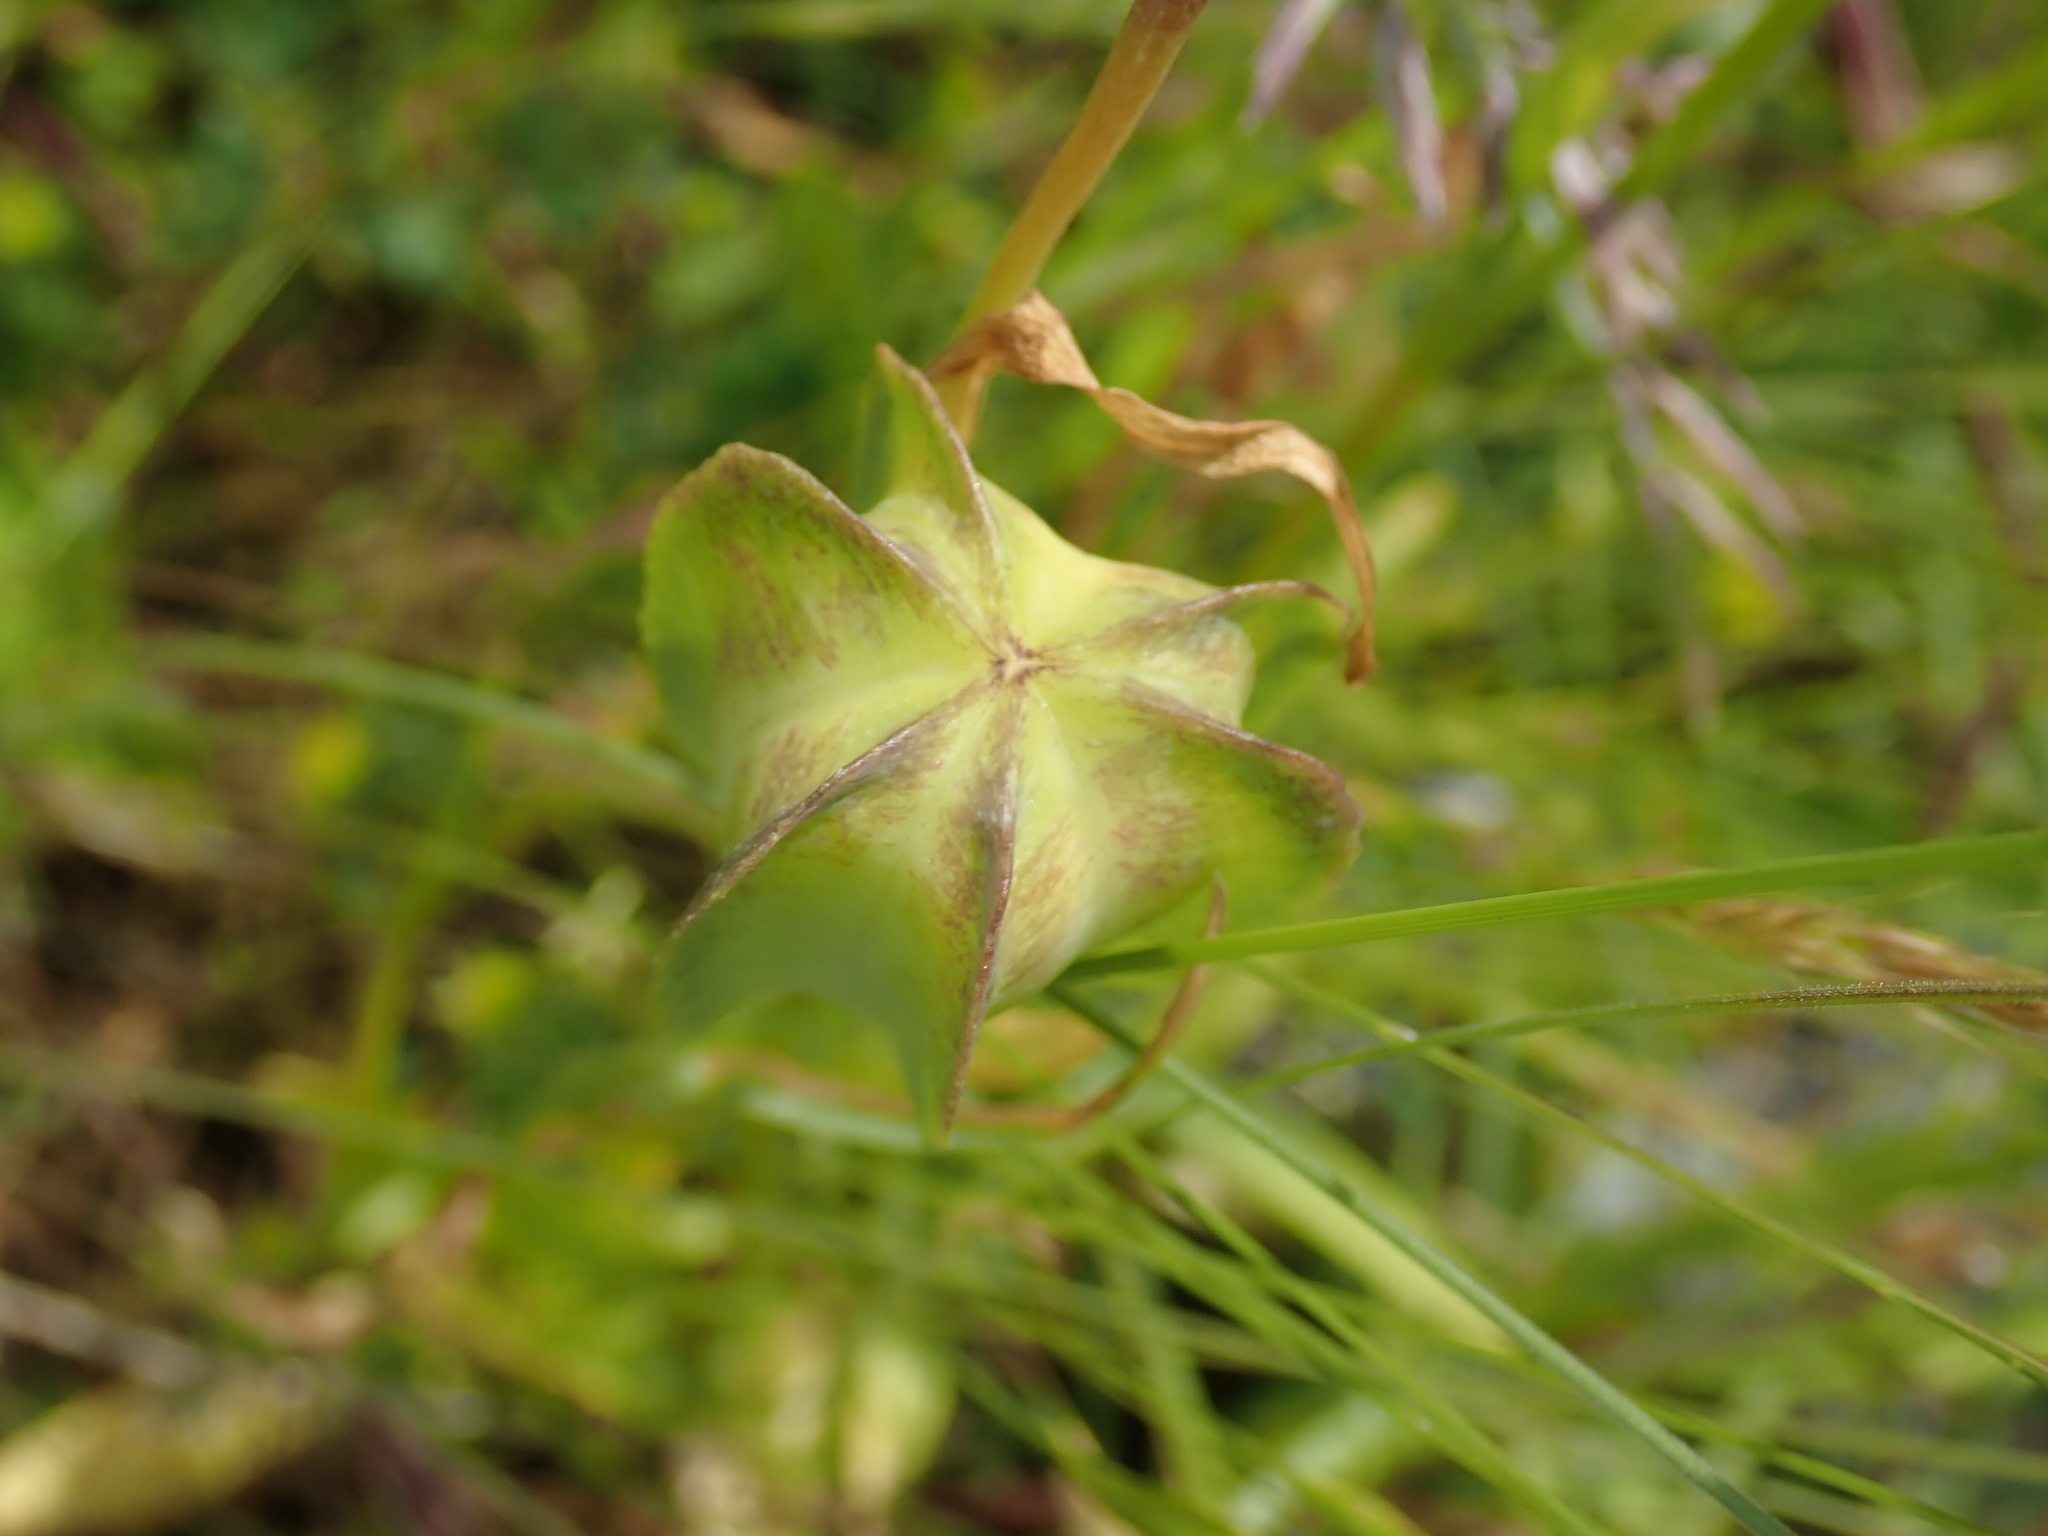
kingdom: Plantae
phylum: Tracheophyta
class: Liliopsida
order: Liliales
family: Liliaceae
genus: Fritillaria
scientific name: Fritillaria affinis
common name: Ojai fritillary
